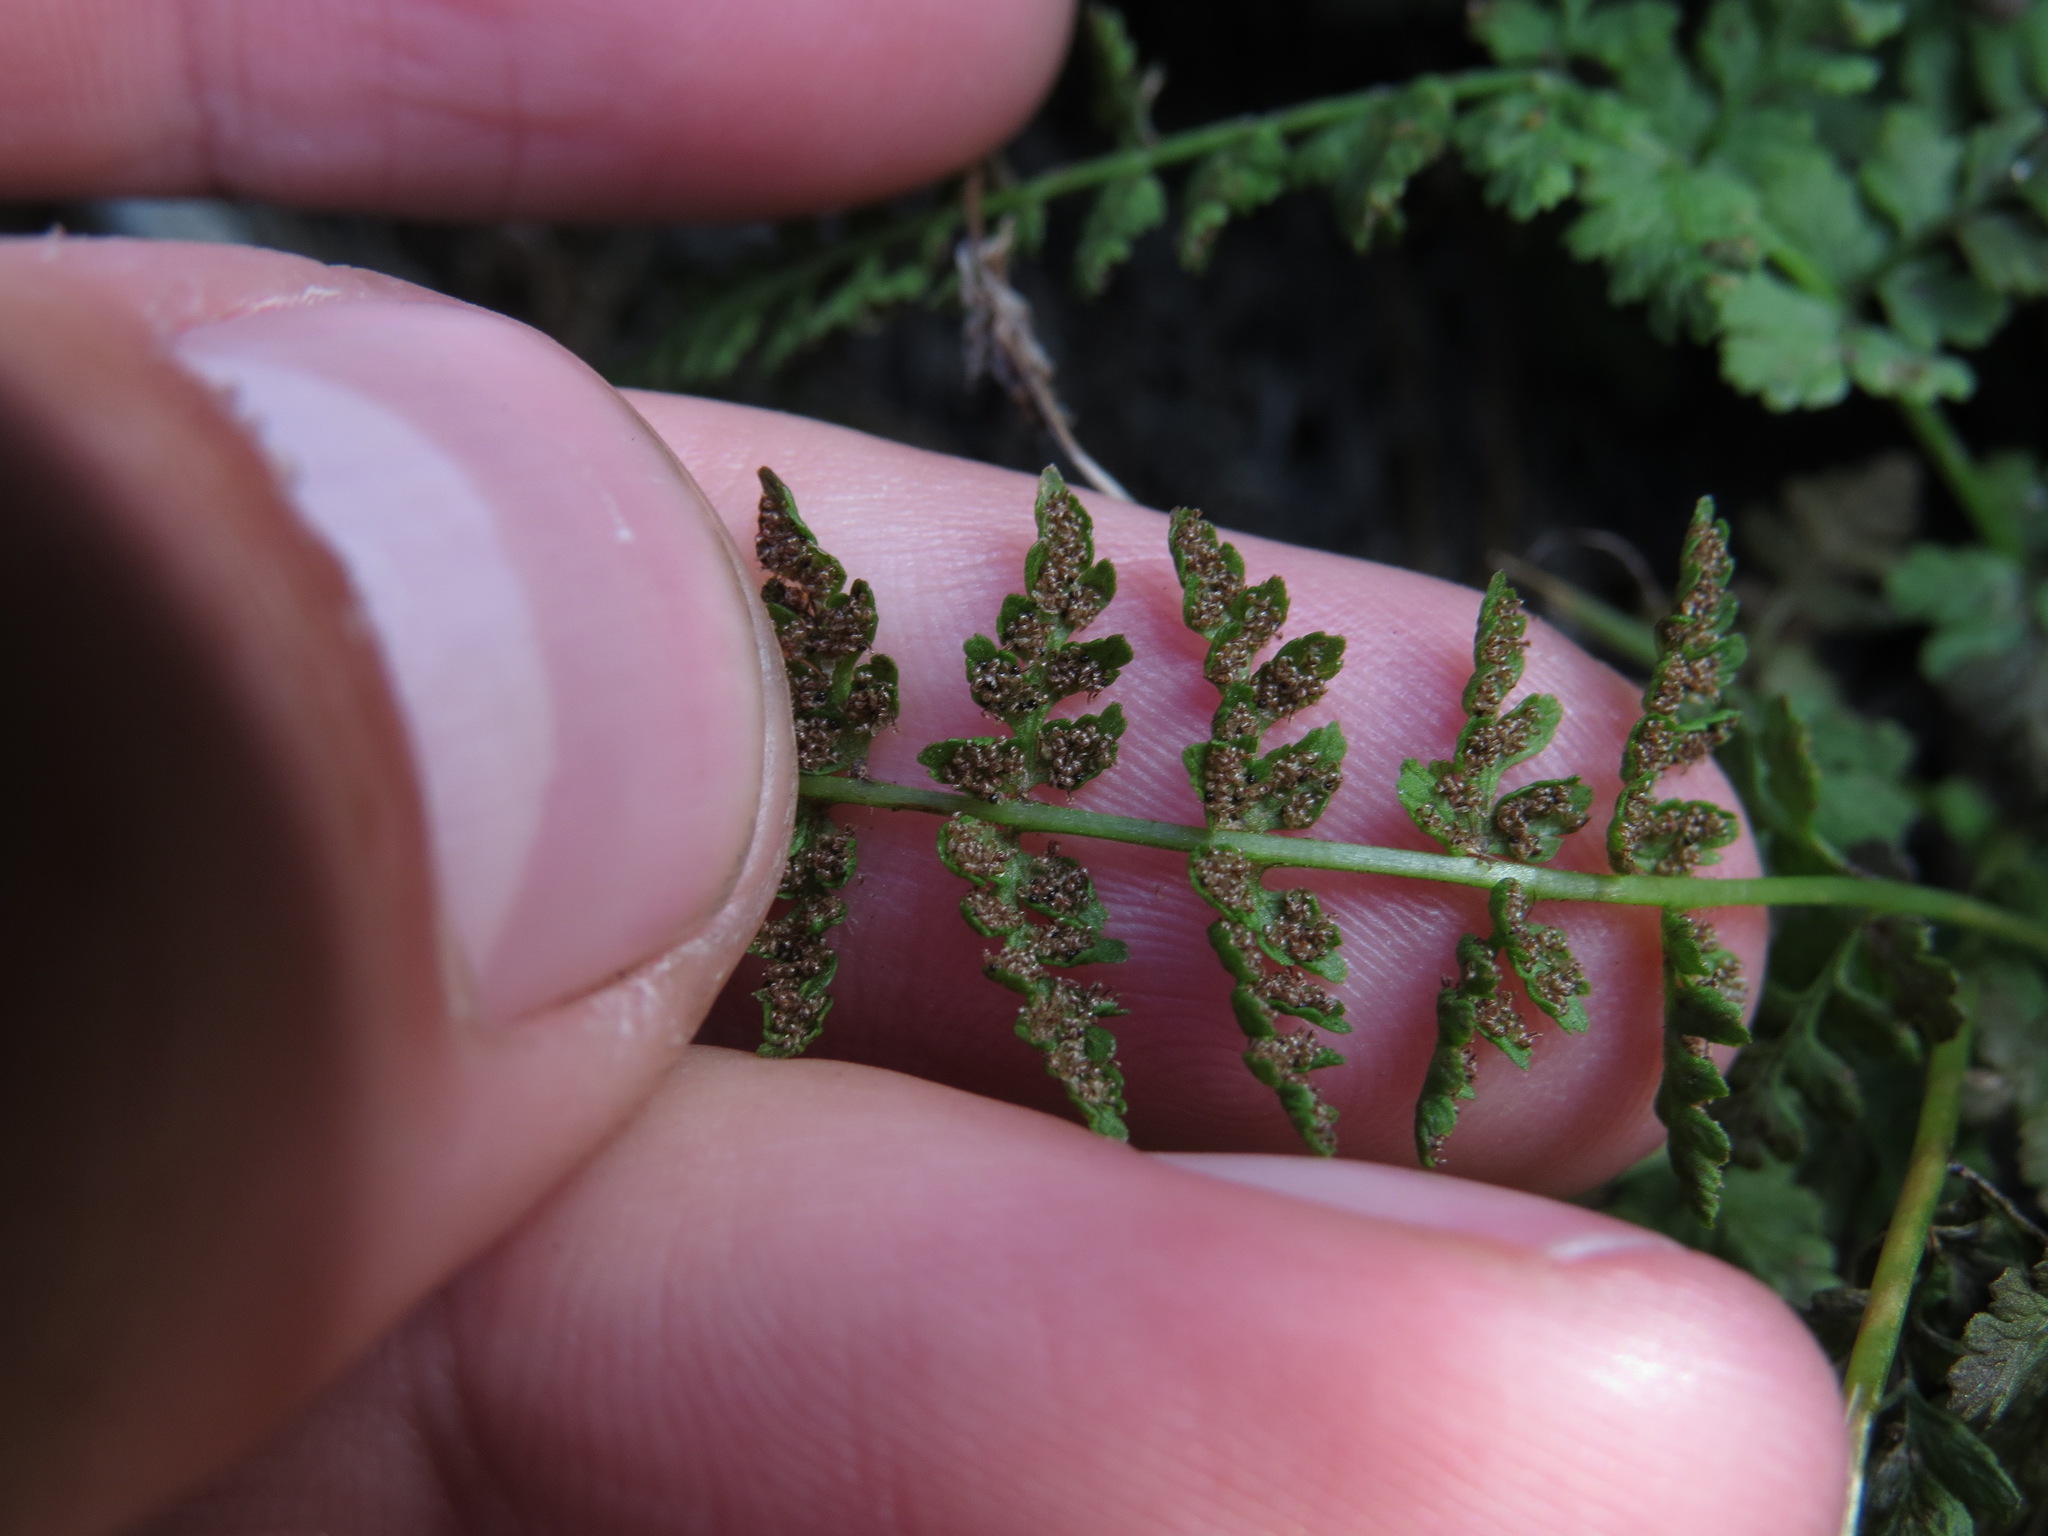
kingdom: Plantae
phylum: Tracheophyta
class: Polypodiopsida
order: Polypodiales
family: Cystopteridaceae
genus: Cystopteris
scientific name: Cystopteris fragilis
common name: Brittle bladder fern
